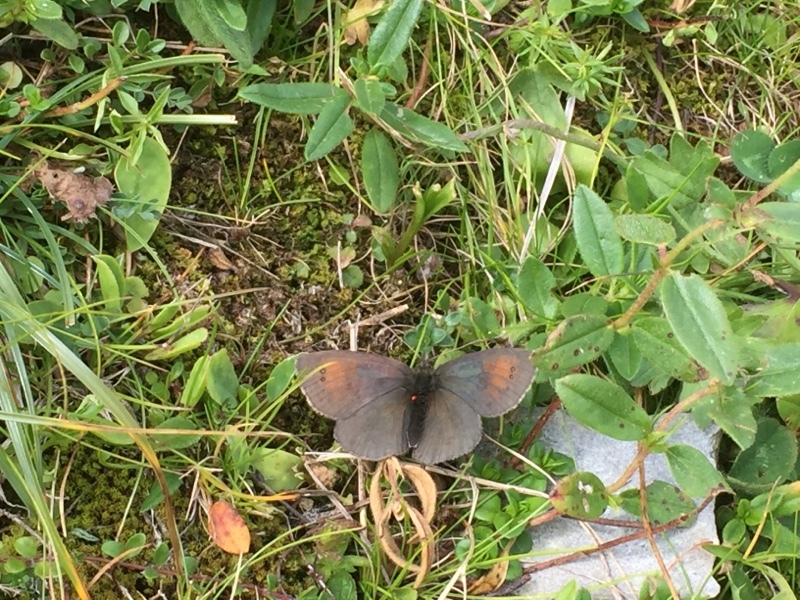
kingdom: Animalia
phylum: Arthropoda
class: Insecta
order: Lepidoptera
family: Nymphalidae
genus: Erebia
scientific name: Erebia tyndarus
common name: Swiss brassy ringlet
